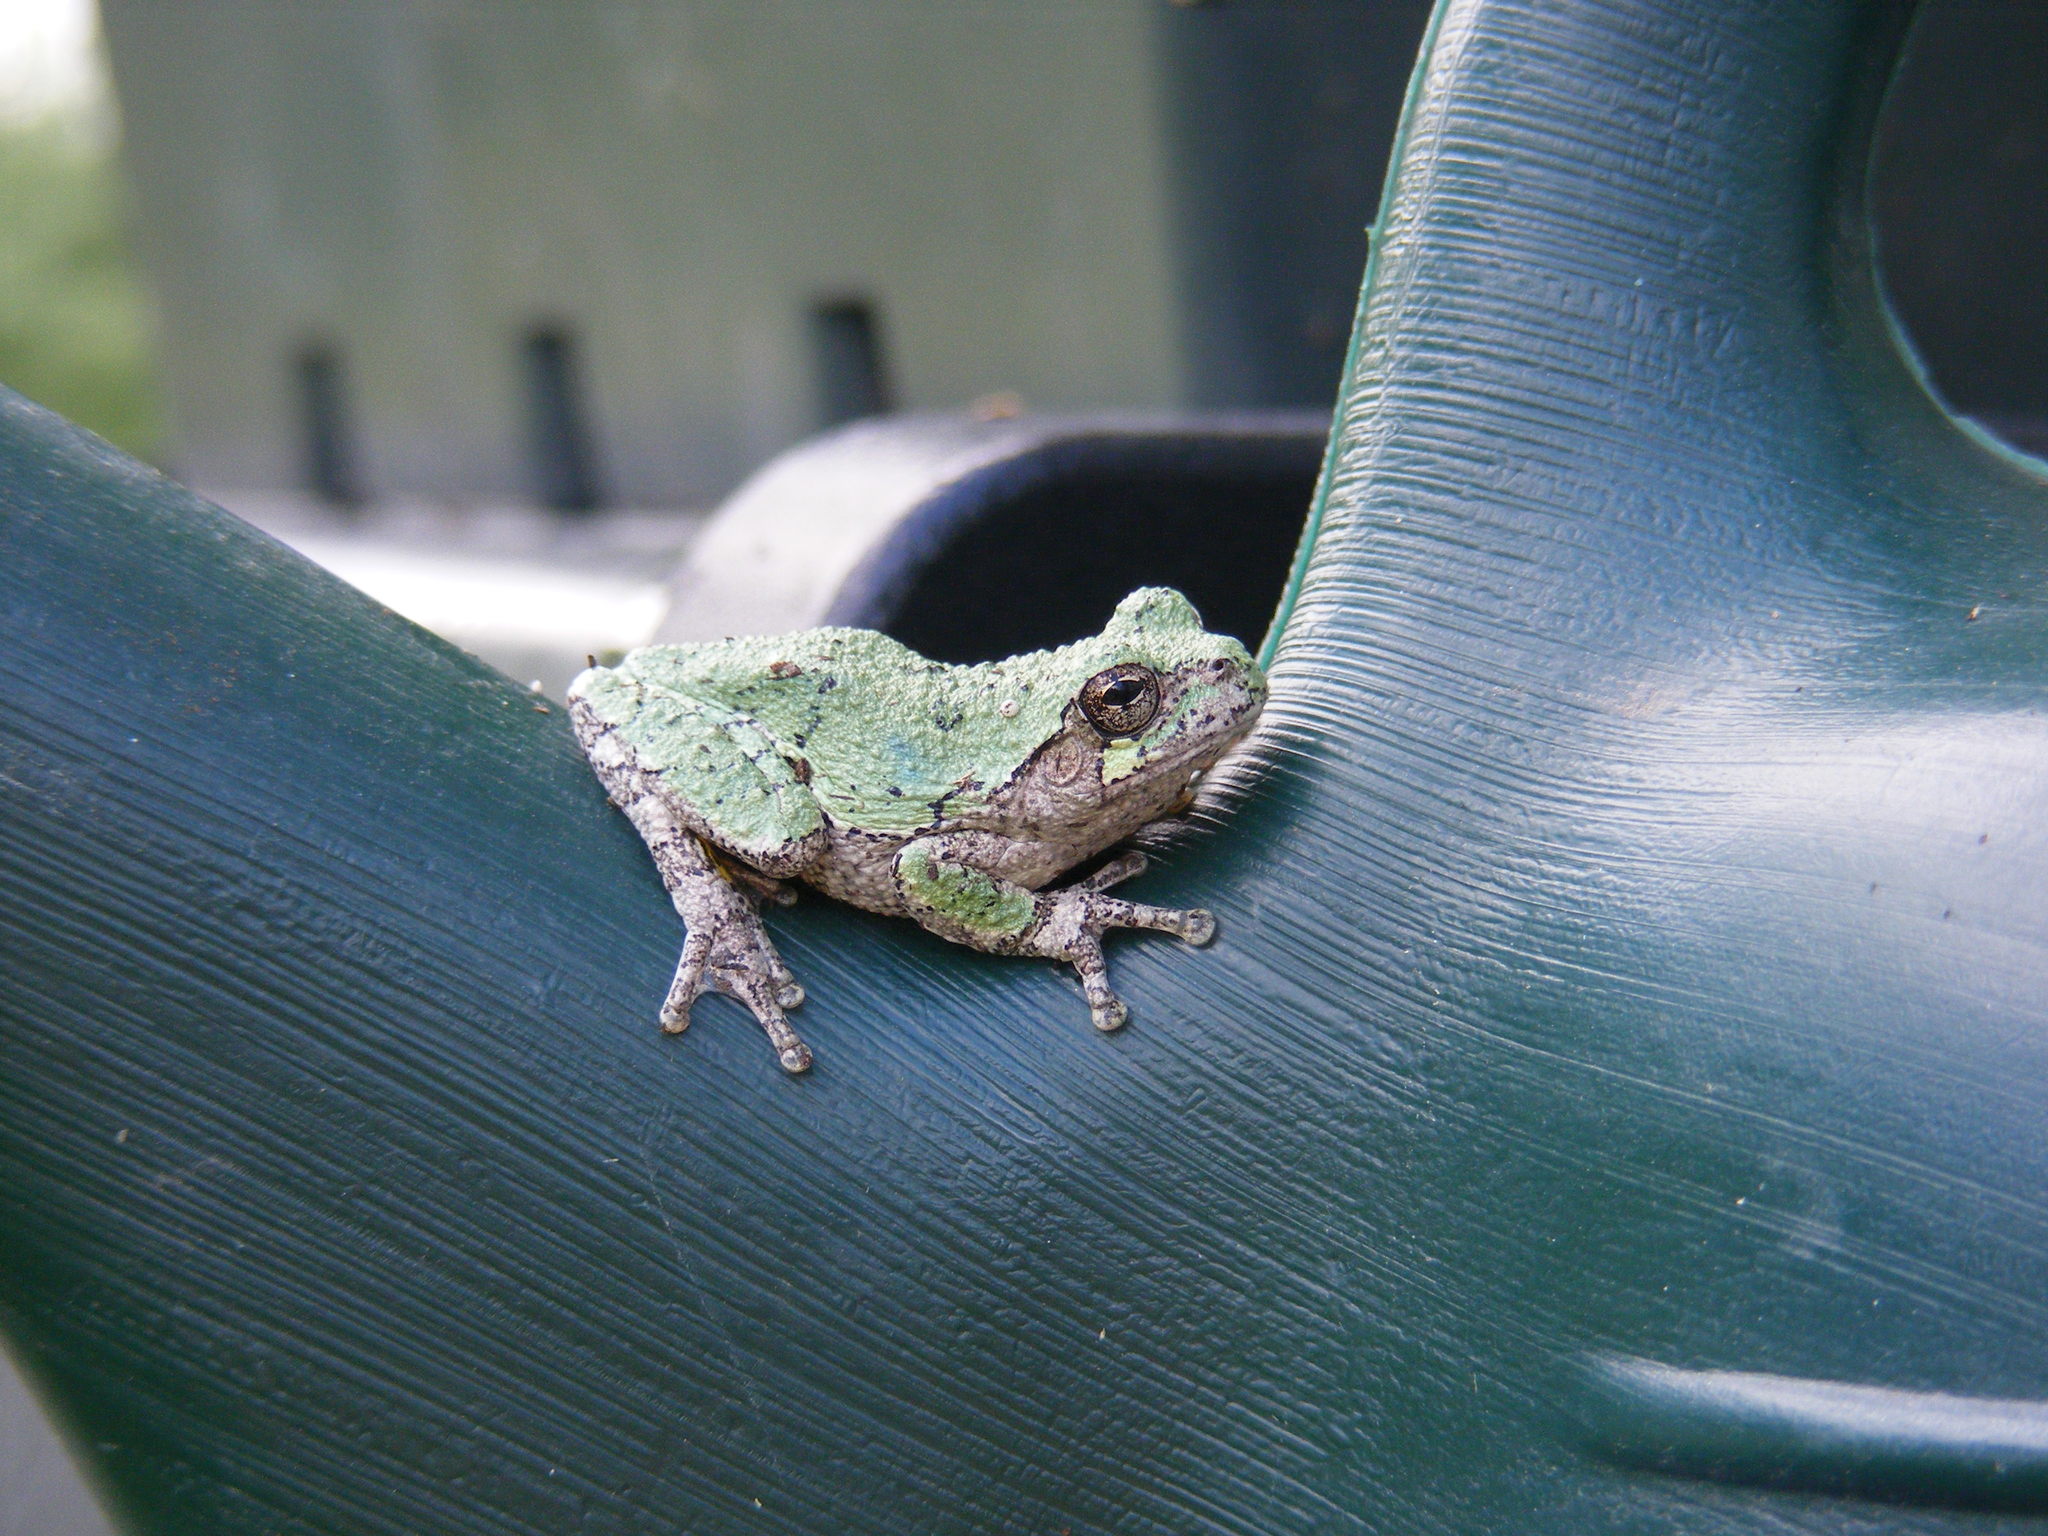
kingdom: Animalia
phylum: Chordata
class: Amphibia
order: Anura
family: Hylidae
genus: Dryophytes
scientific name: Dryophytes versicolor
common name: Gray treefrog
